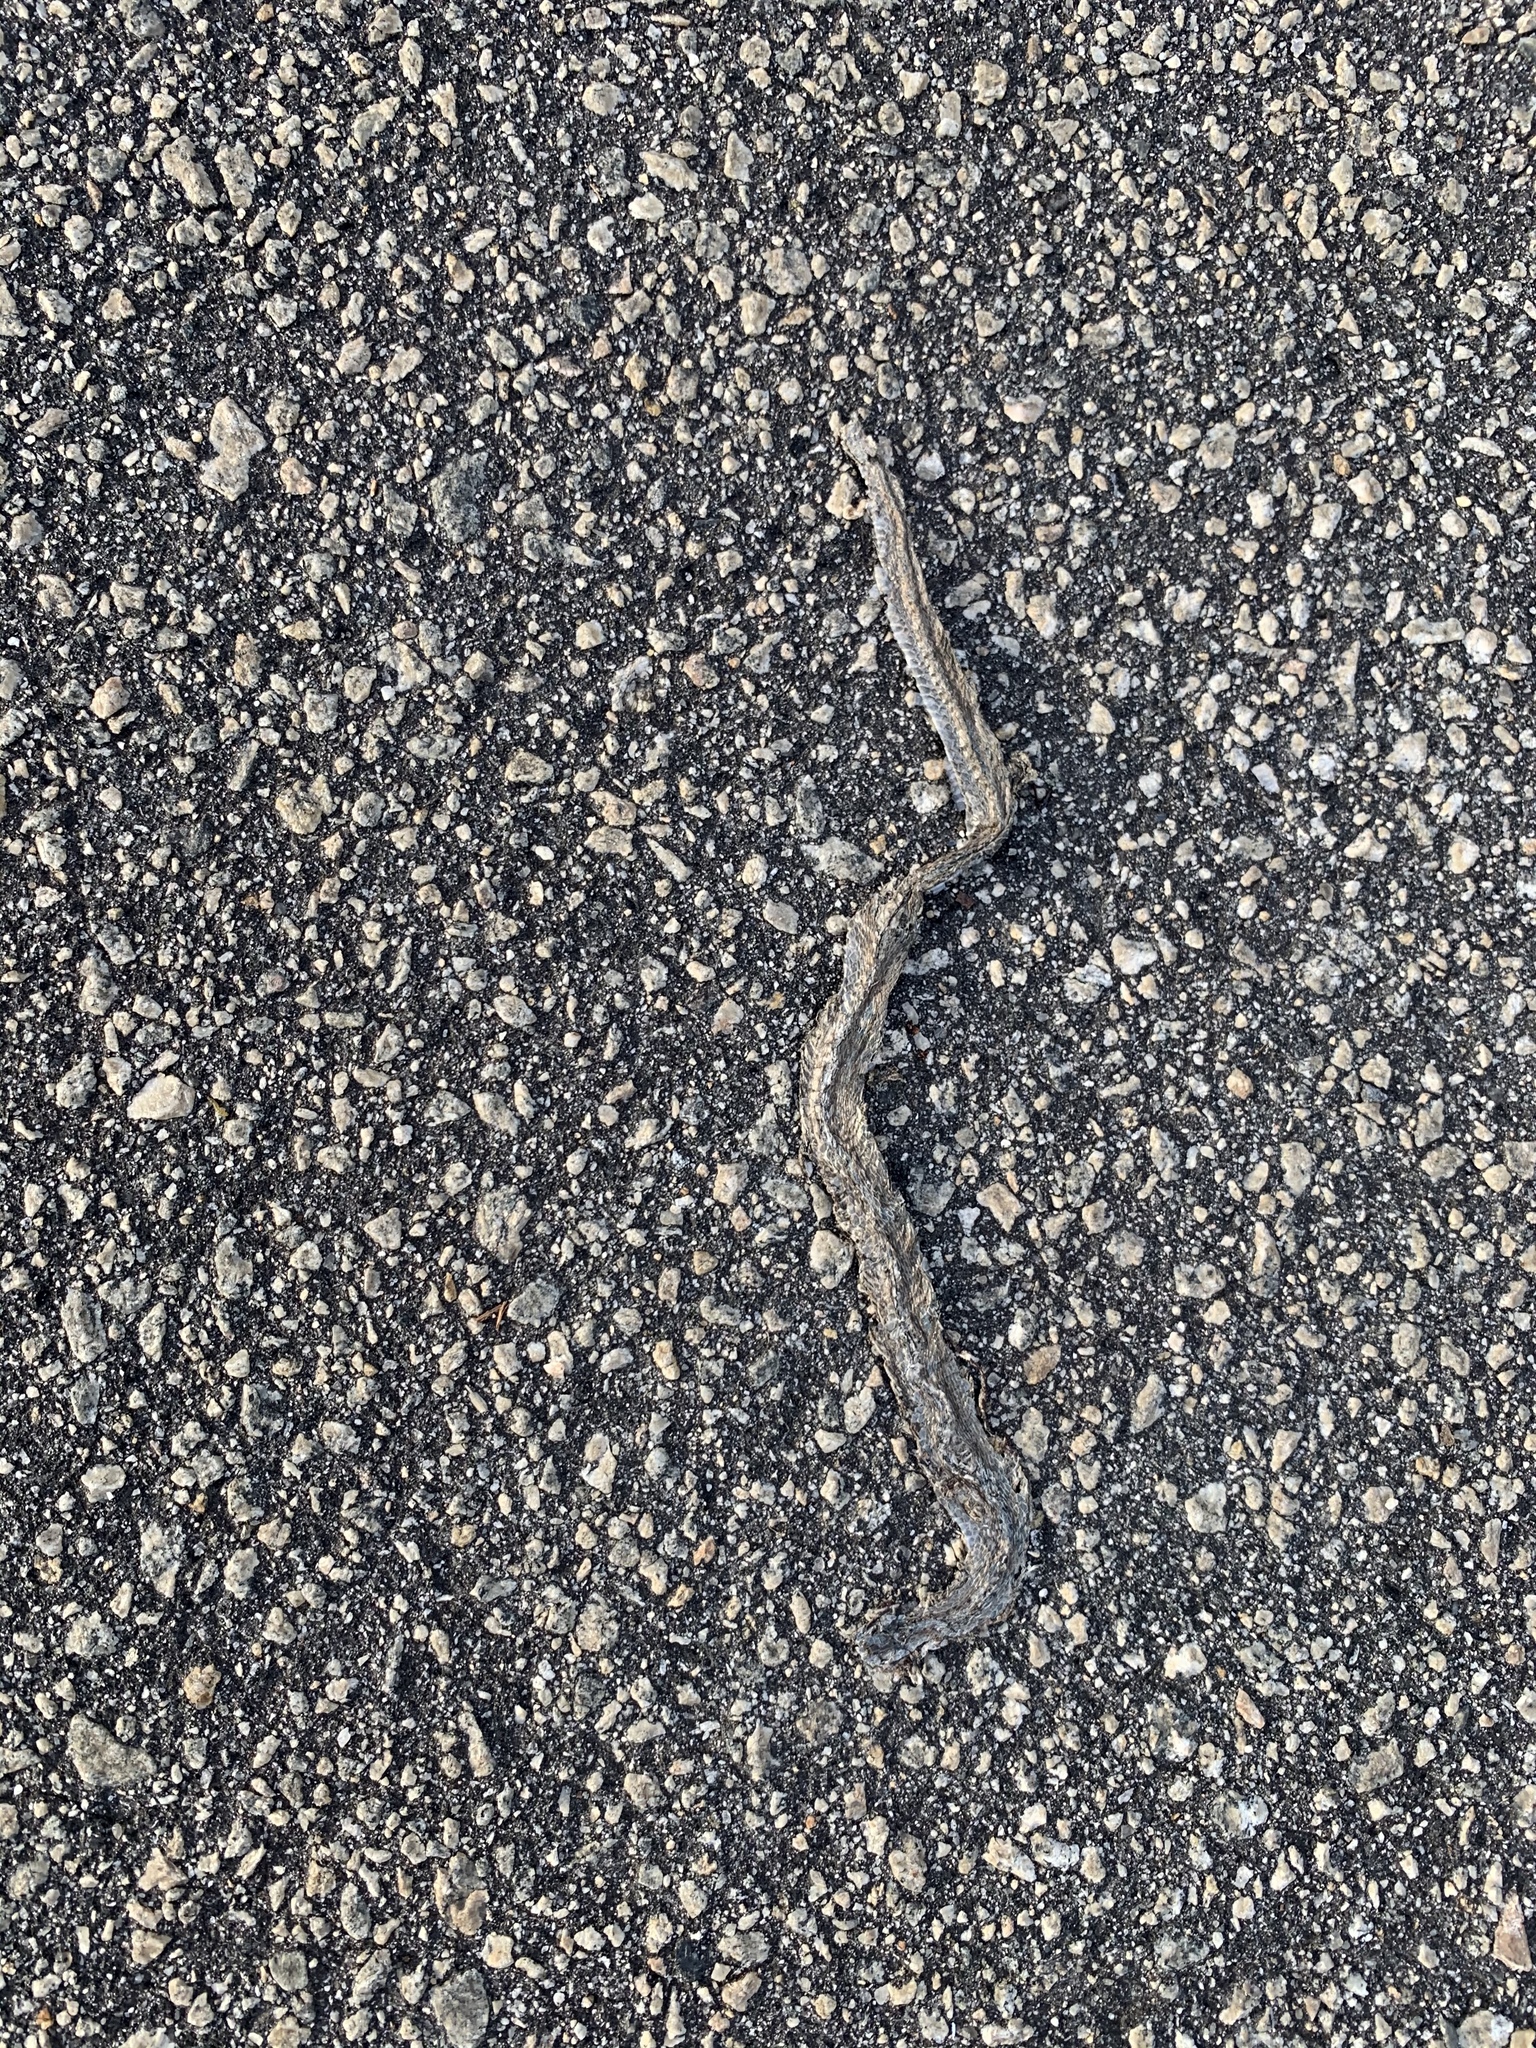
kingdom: Animalia
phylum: Chordata
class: Squamata
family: Colubridae
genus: Storeria
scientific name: Storeria dekayi
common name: (dekay’s) brown snake
